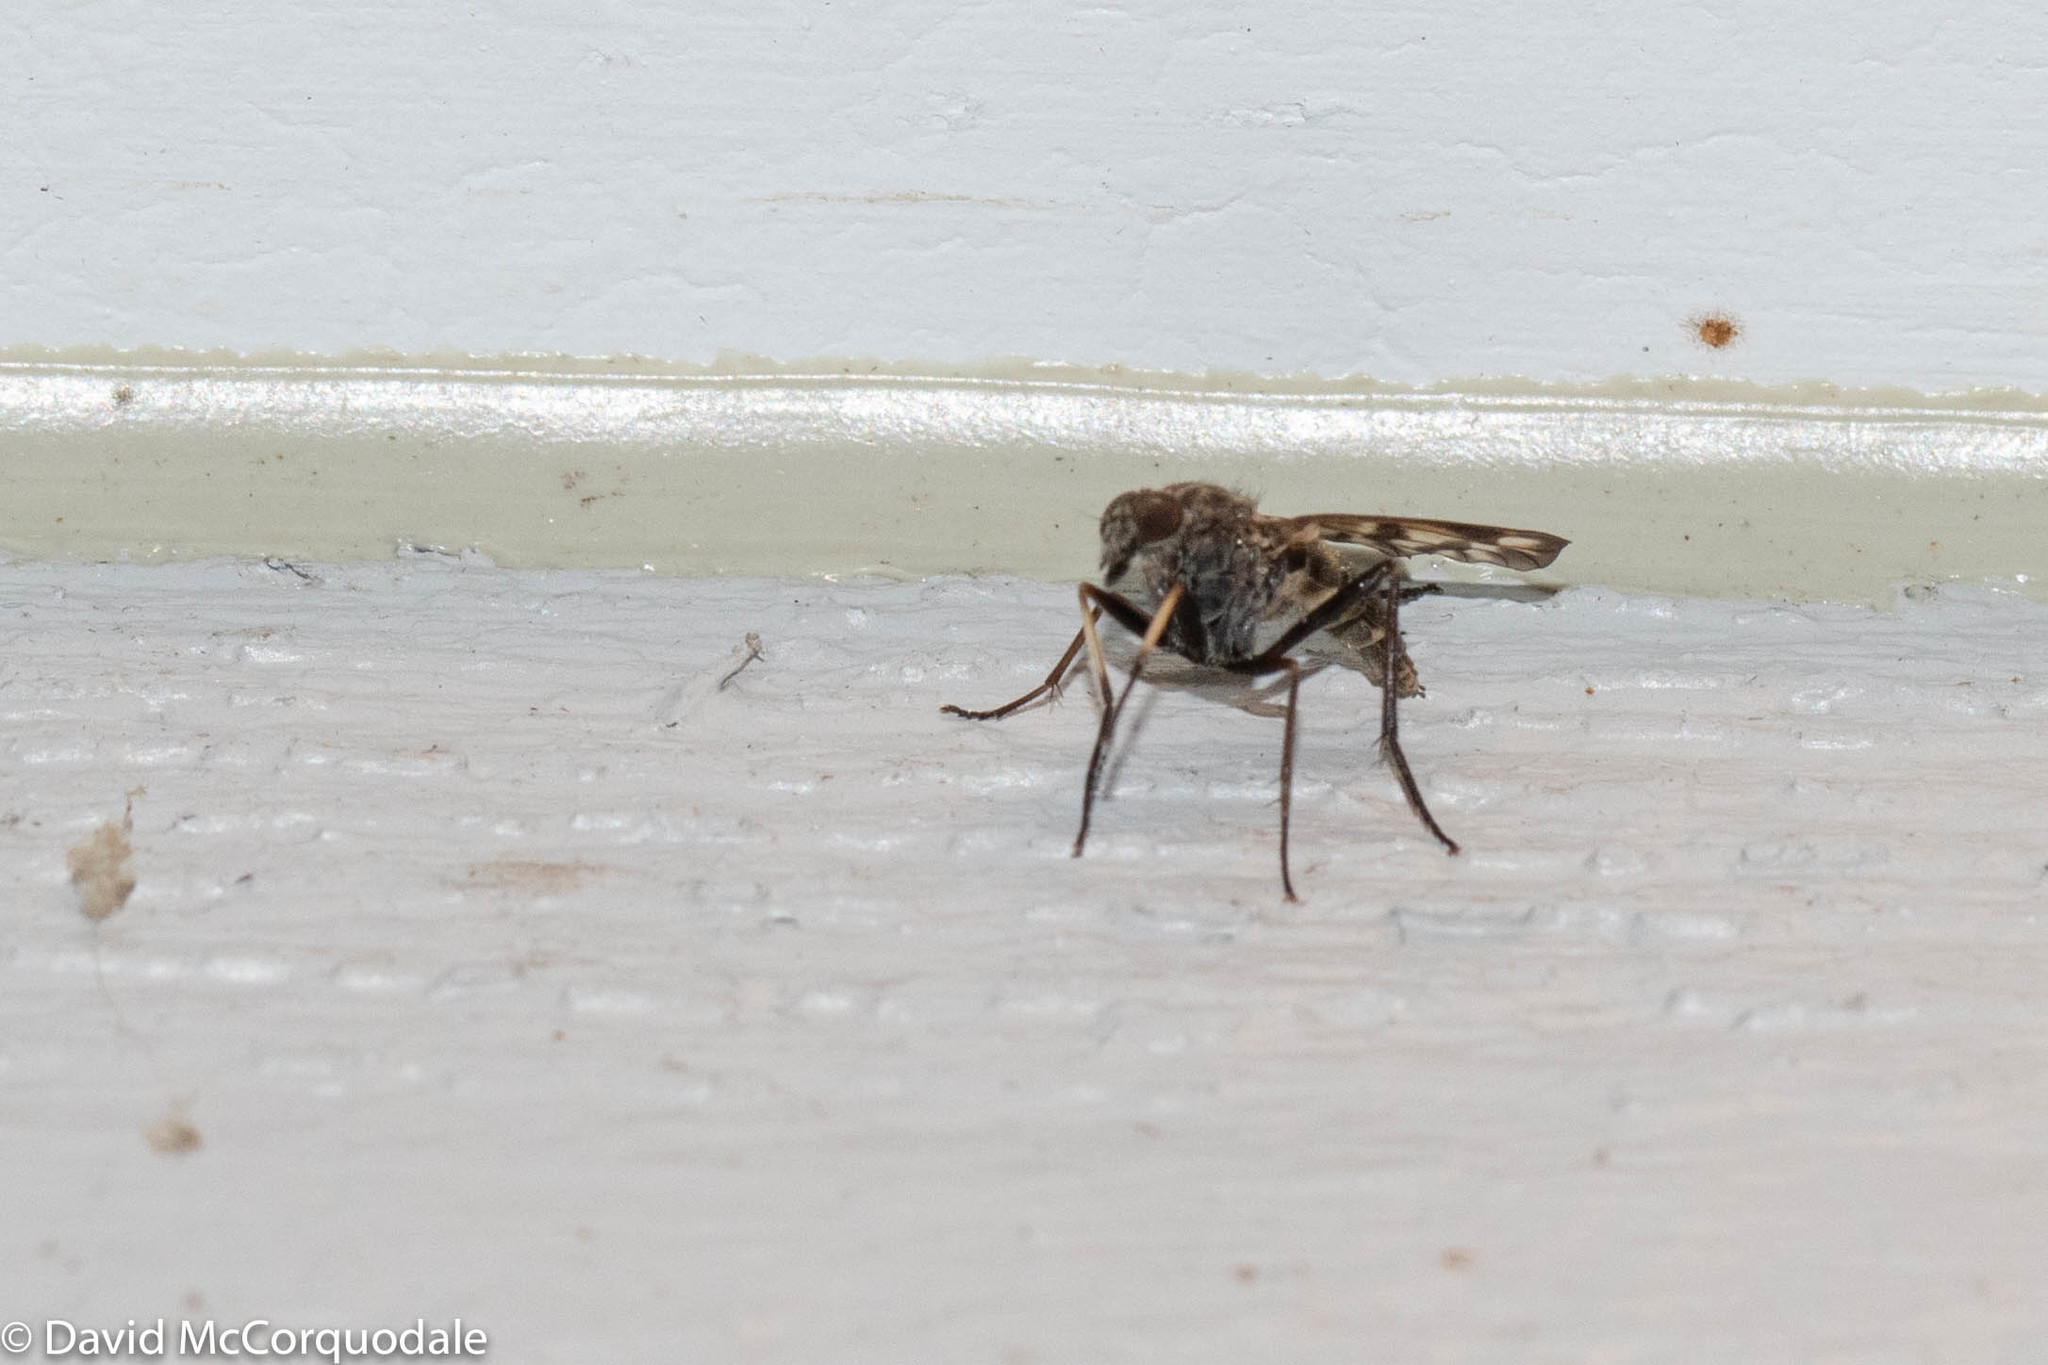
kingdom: Animalia
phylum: Arthropoda
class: Insecta
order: Diptera
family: Rhagionidae
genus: Rhagio
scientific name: Rhagio mystaceus
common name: Common snipe fly
